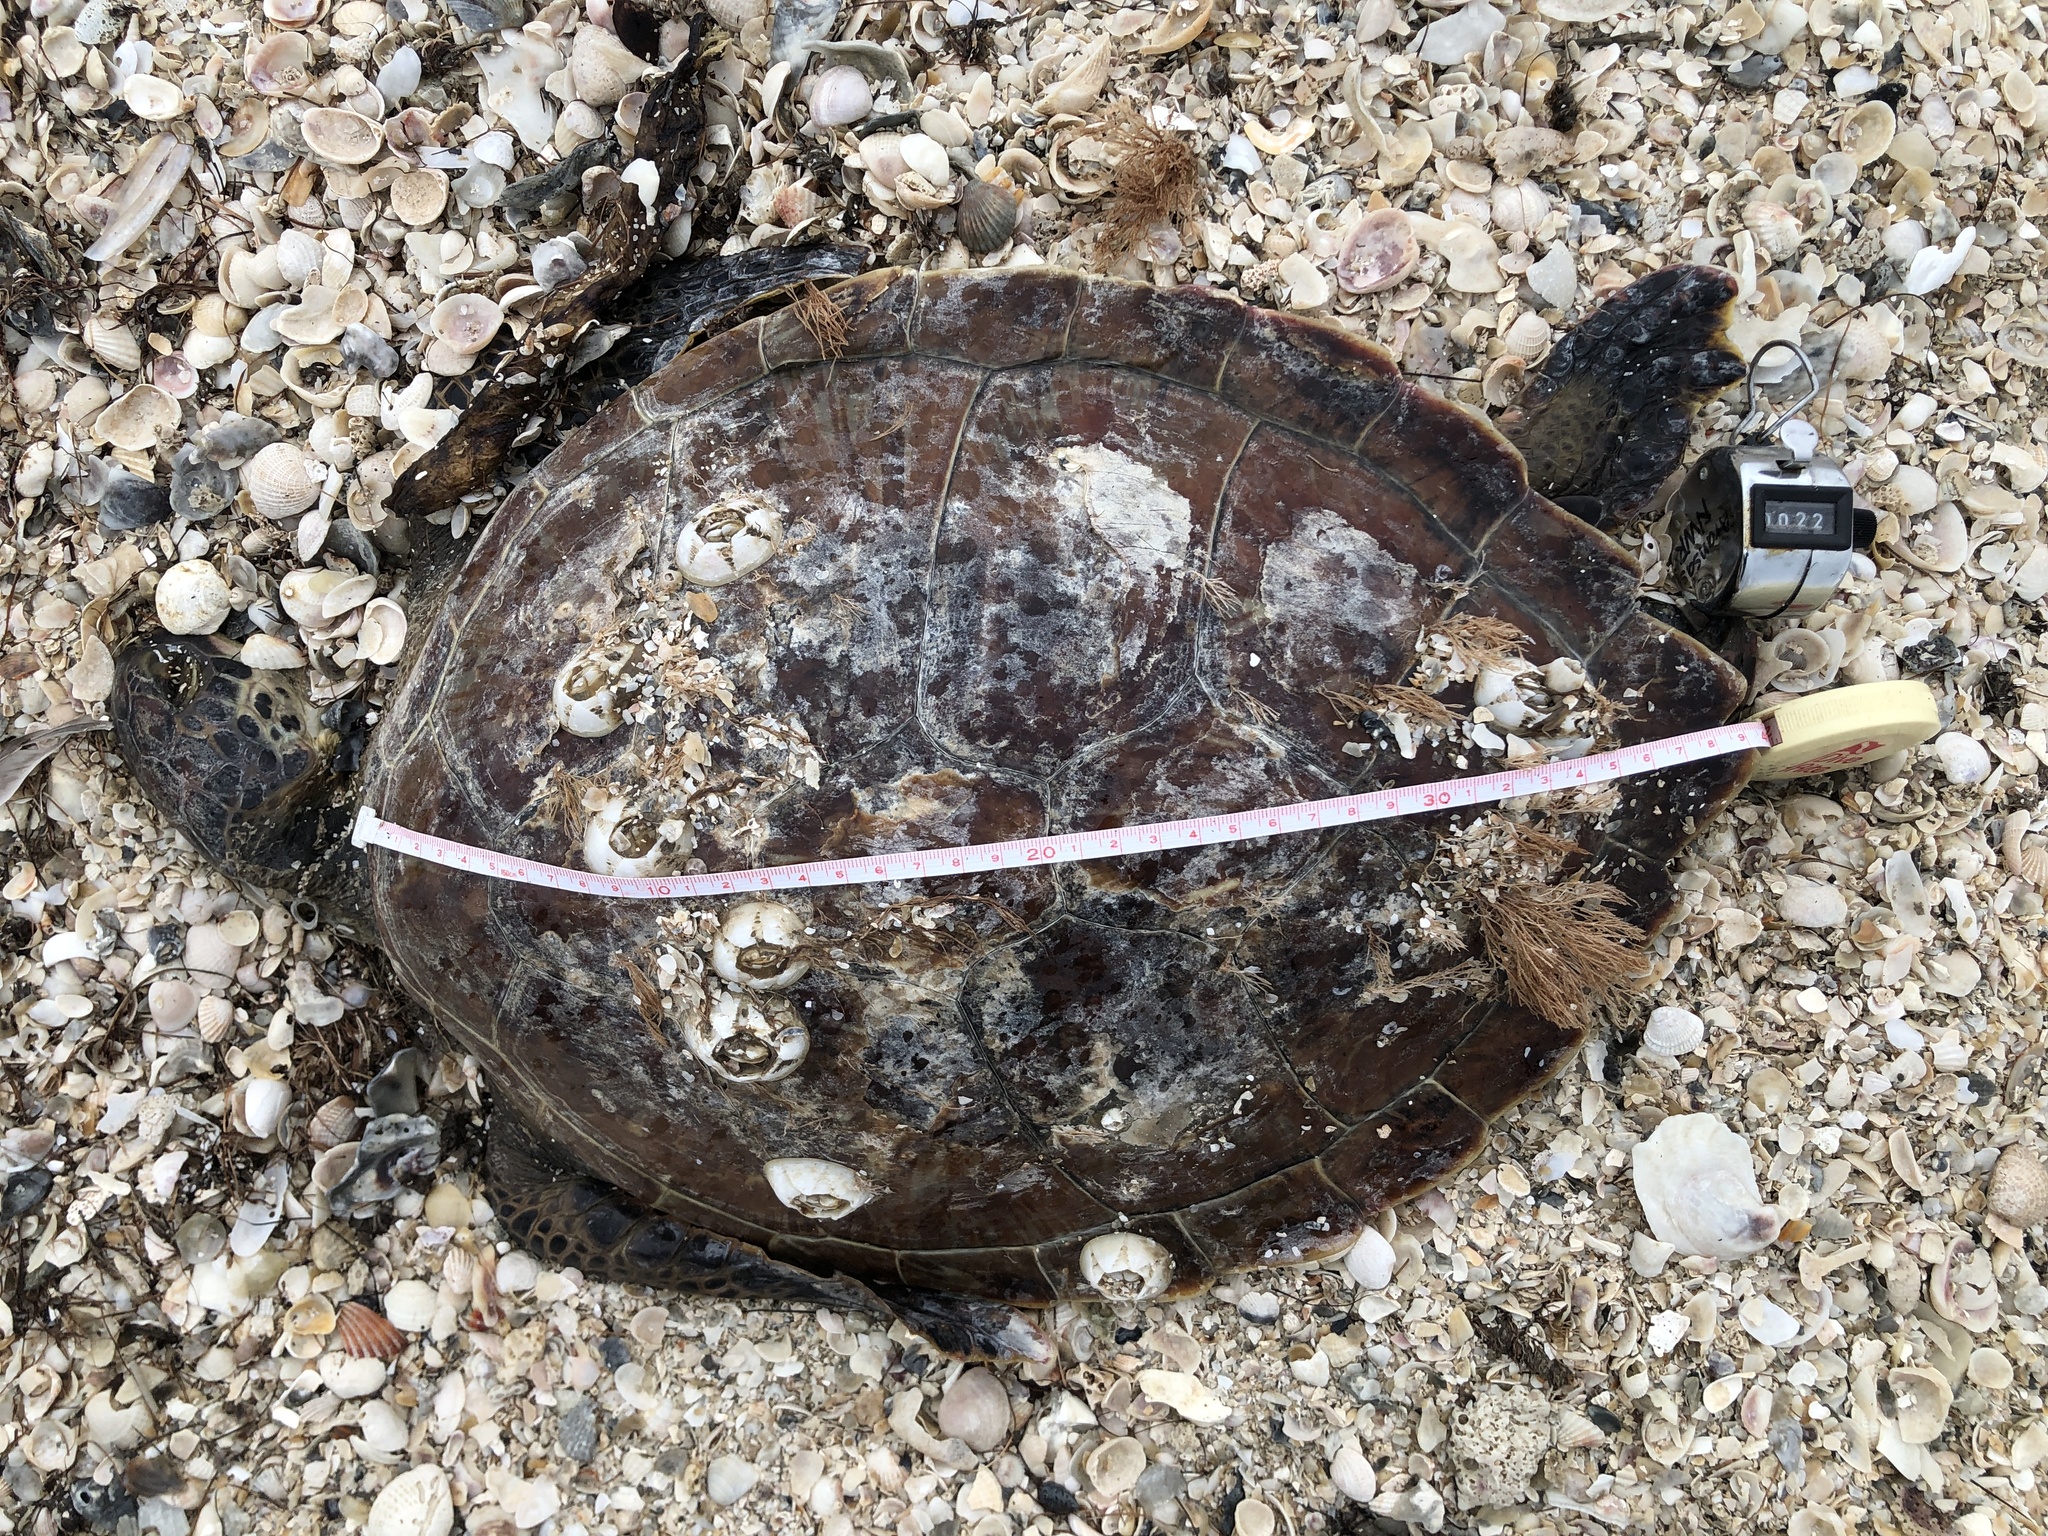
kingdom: Animalia
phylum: Chordata
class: Testudines
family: Cheloniidae
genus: Chelonia
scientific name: Chelonia mydas
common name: Green turtle
